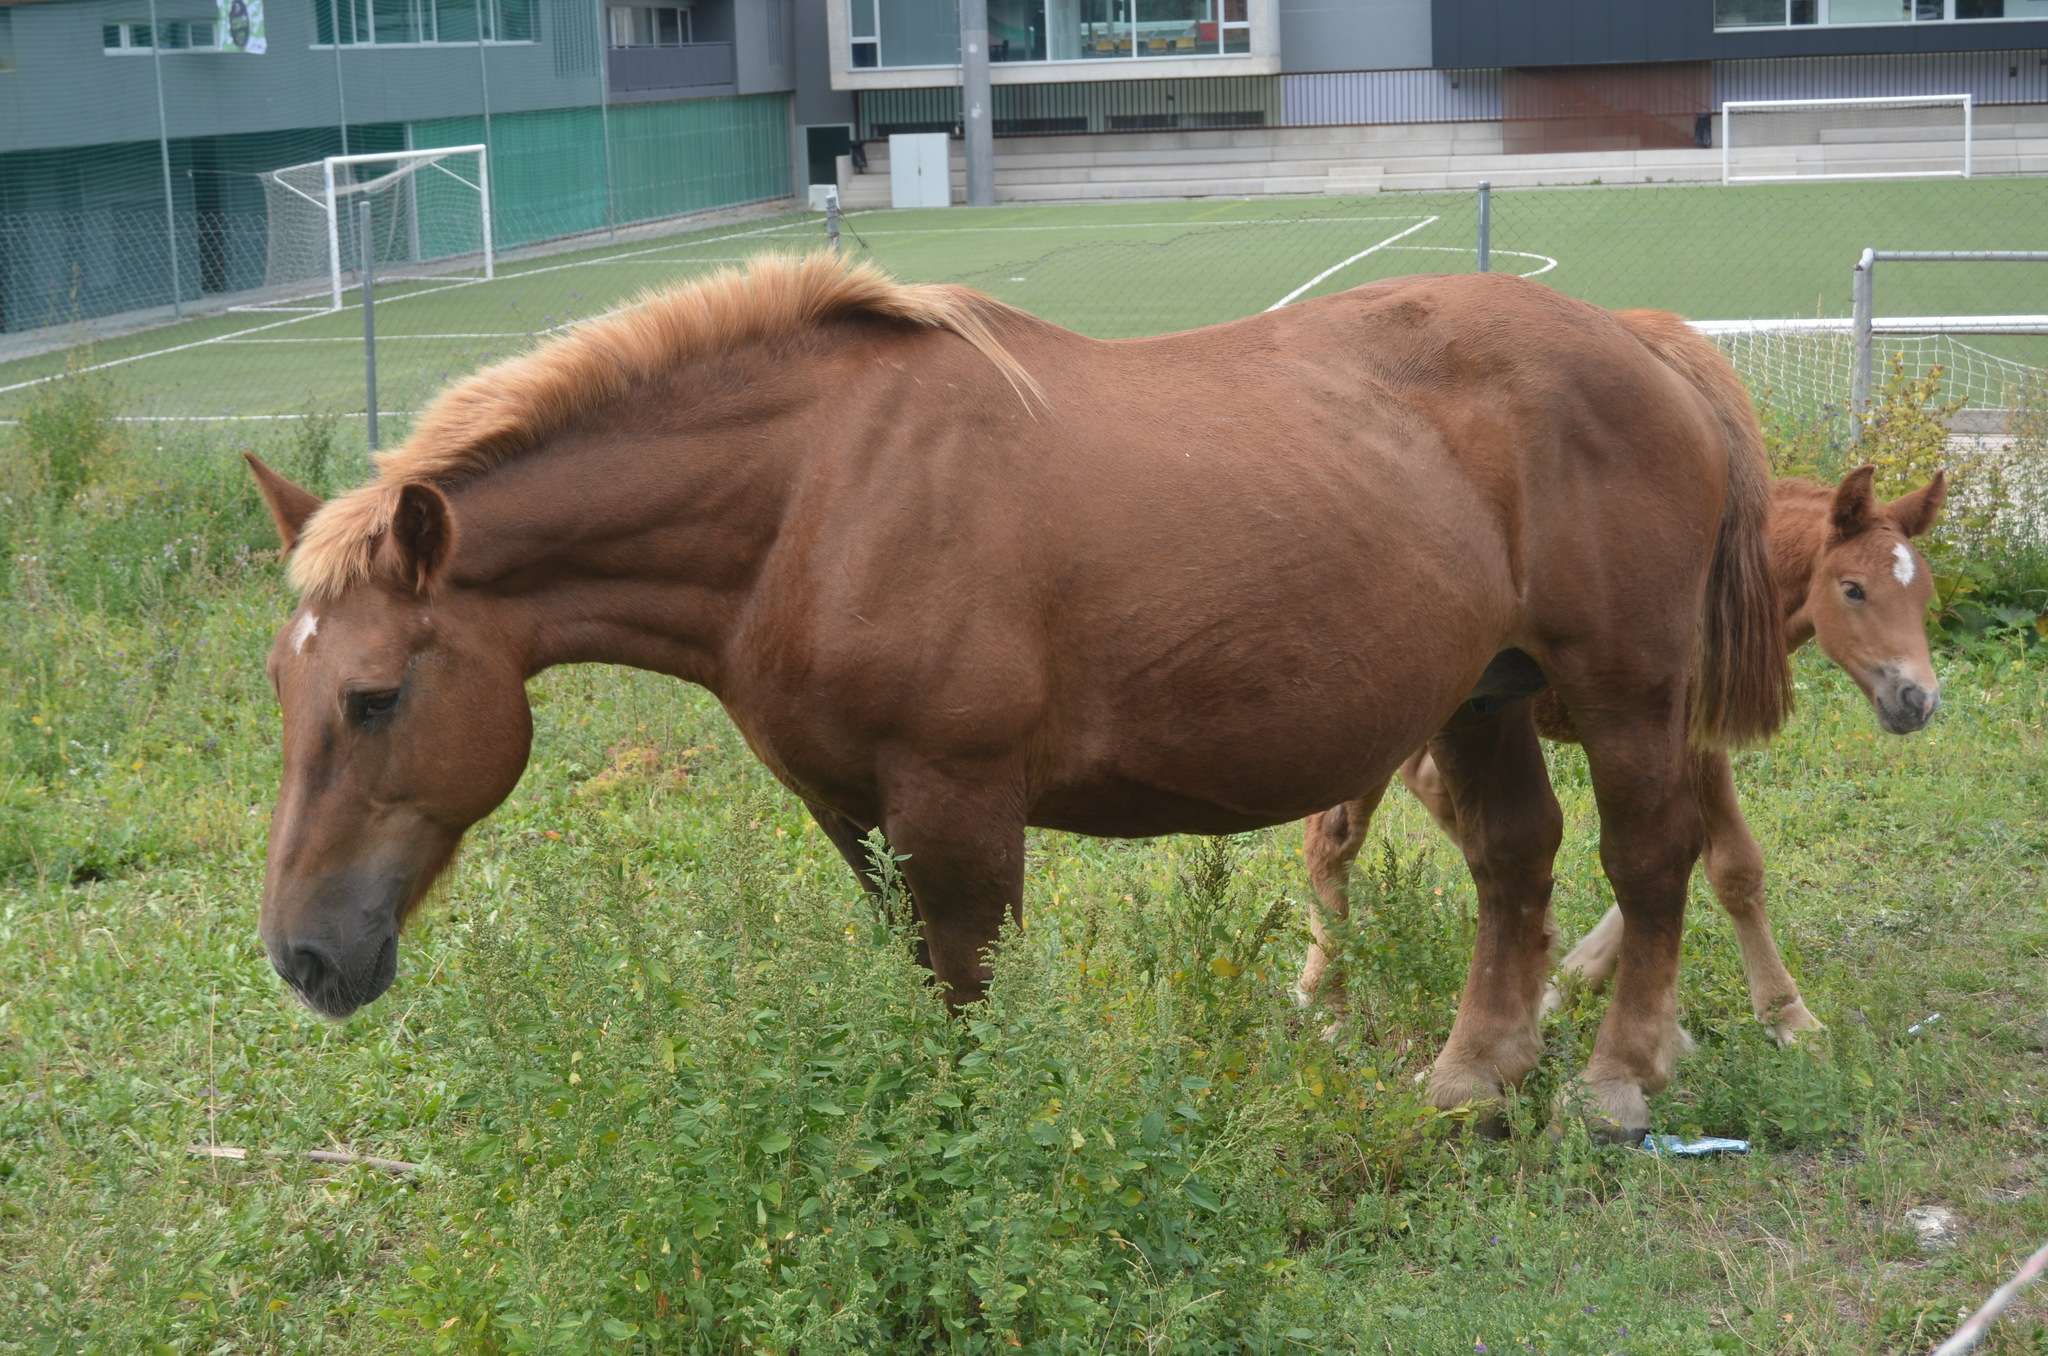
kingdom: Animalia
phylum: Chordata
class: Mammalia
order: Perissodactyla
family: Equidae
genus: Equus
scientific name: Equus caballus
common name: Horse
